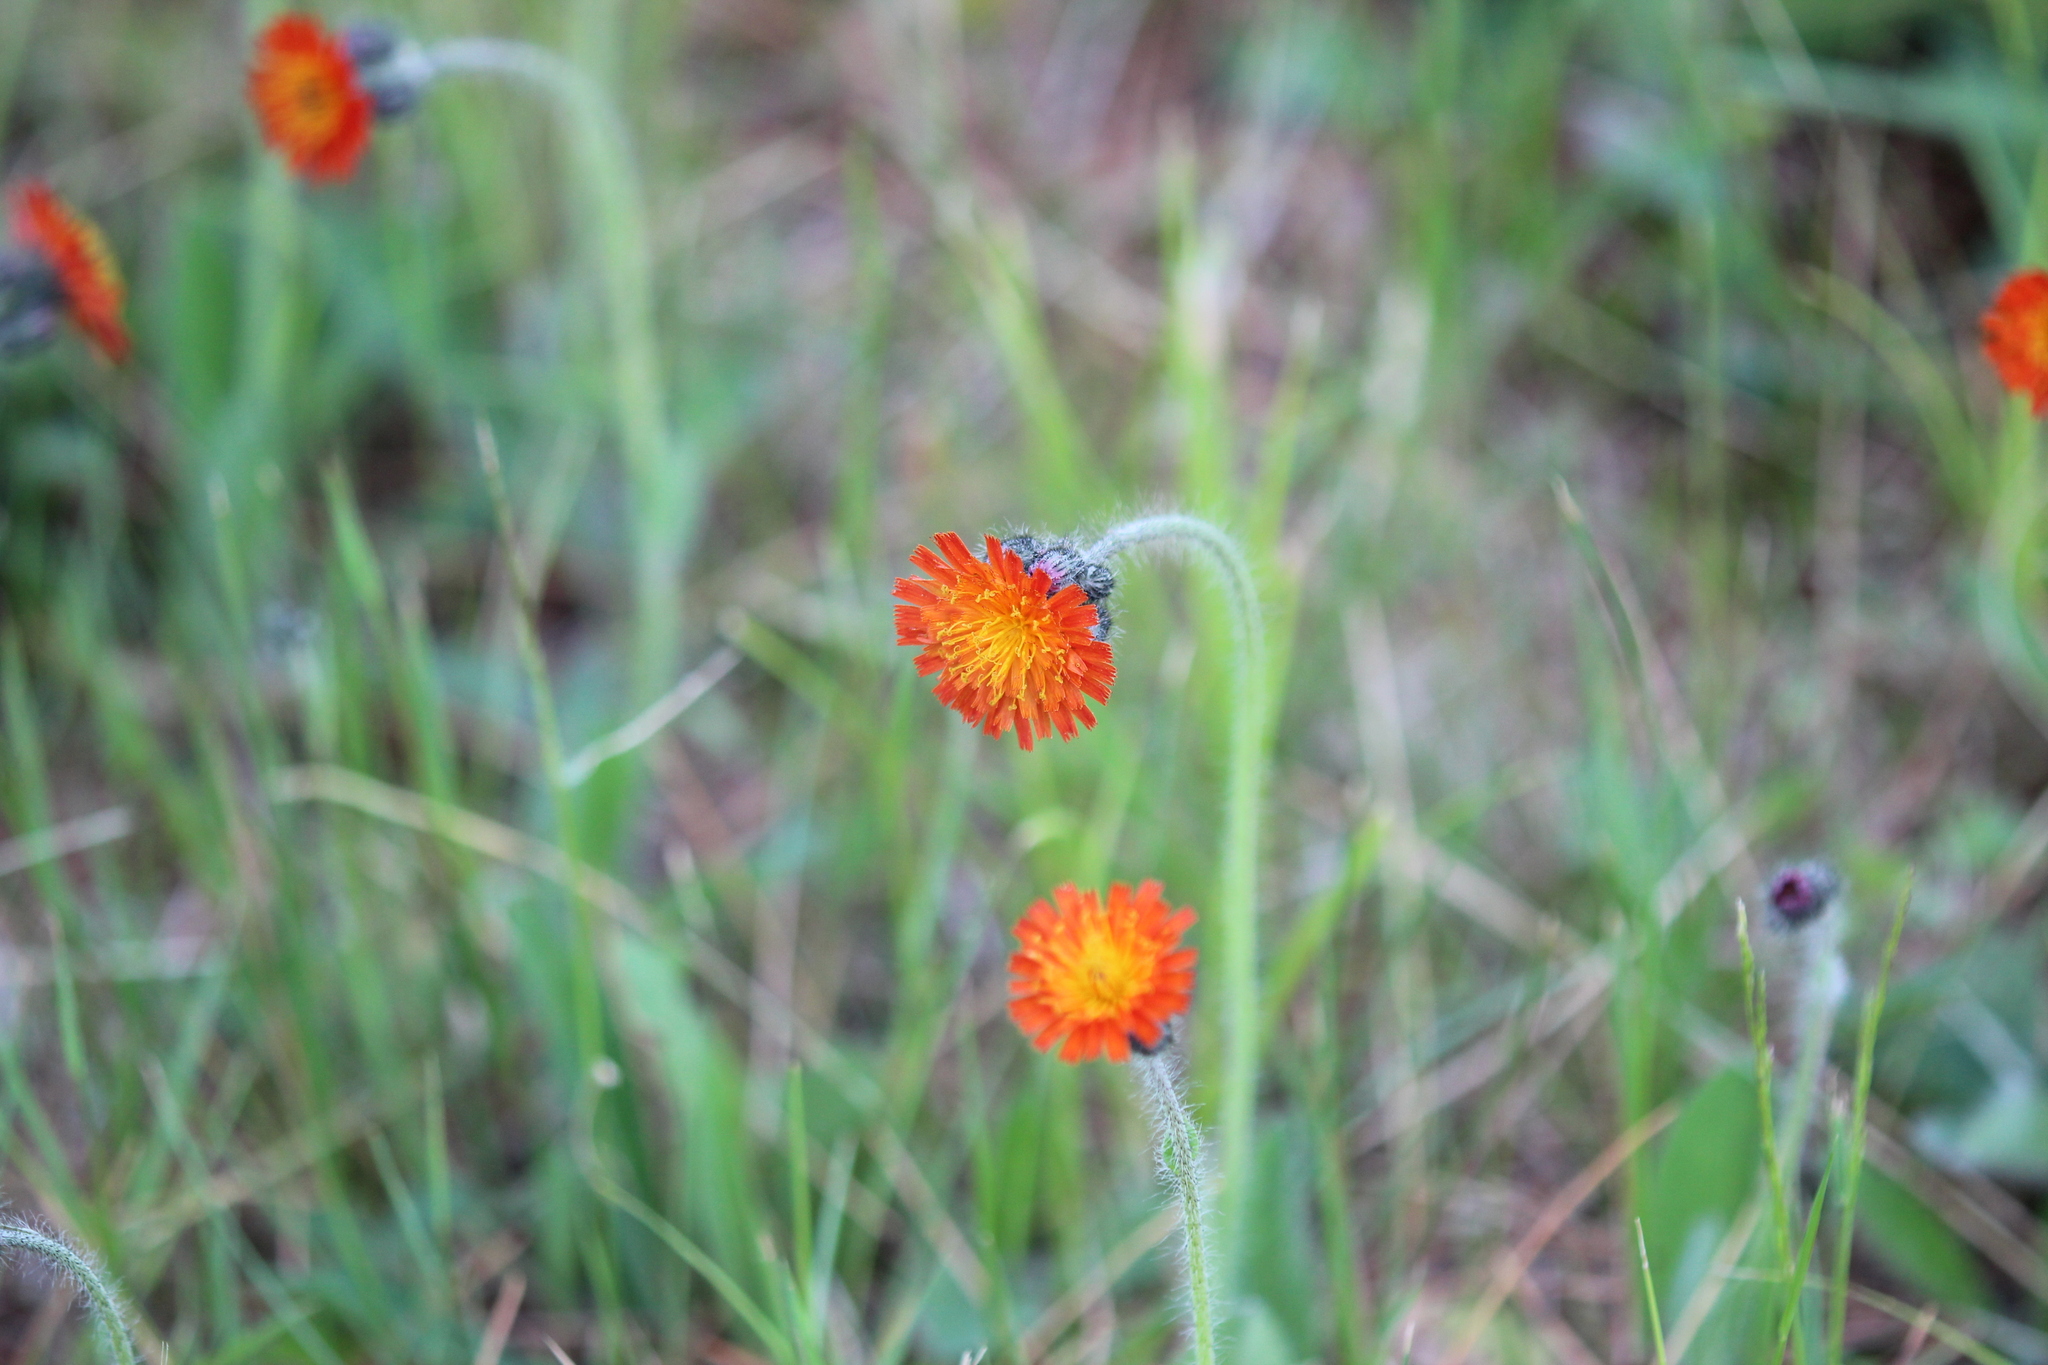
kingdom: Plantae
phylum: Tracheophyta
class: Magnoliopsida
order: Asterales
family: Asteraceae
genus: Pilosella
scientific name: Pilosella aurantiaca
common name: Fox-and-cubs
